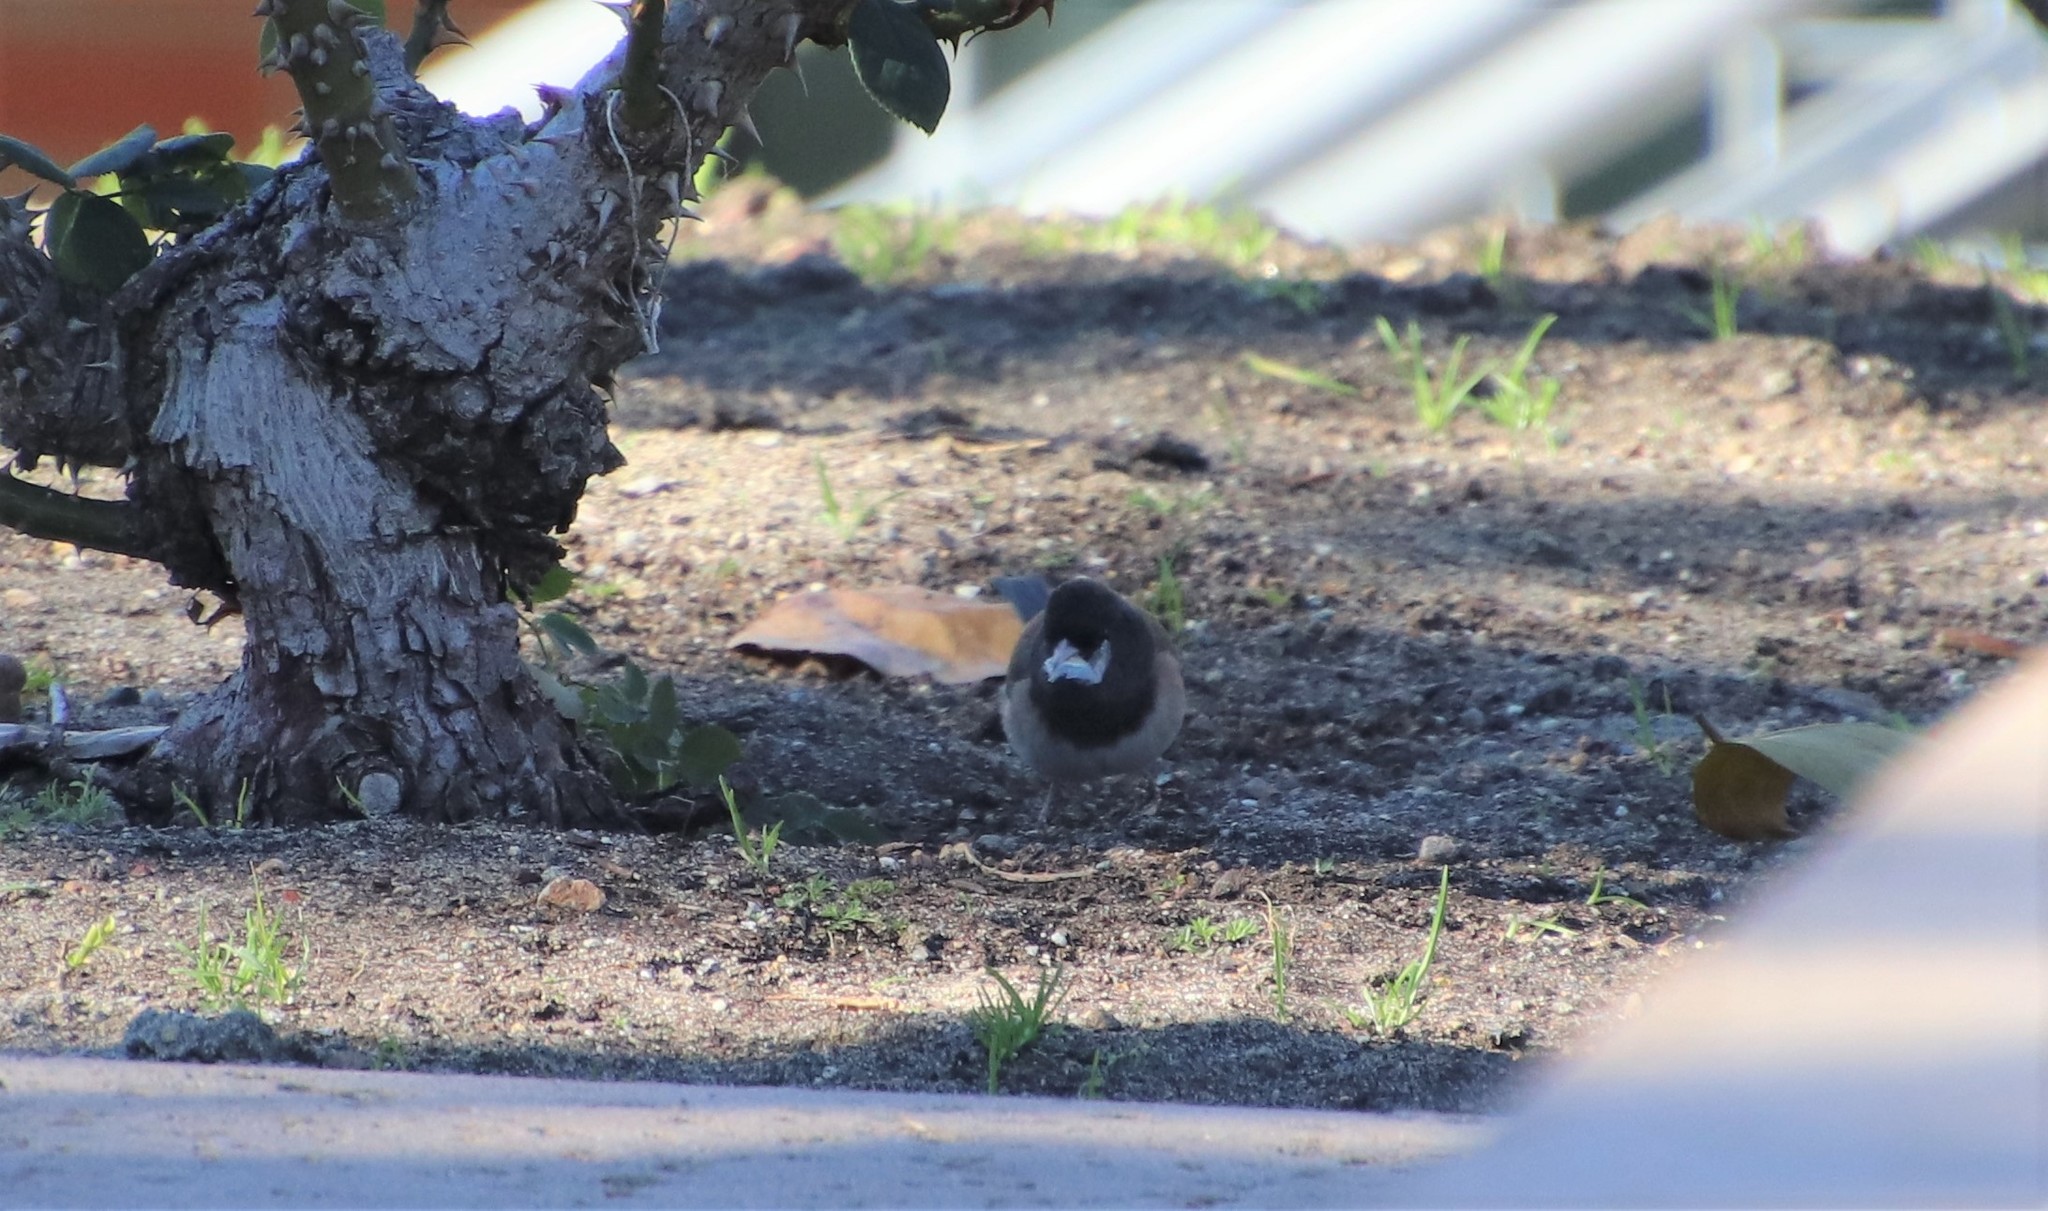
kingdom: Animalia
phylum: Chordata
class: Aves
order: Passeriformes
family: Passerellidae
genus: Junco
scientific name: Junco hyemalis
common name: Dark-eyed junco
